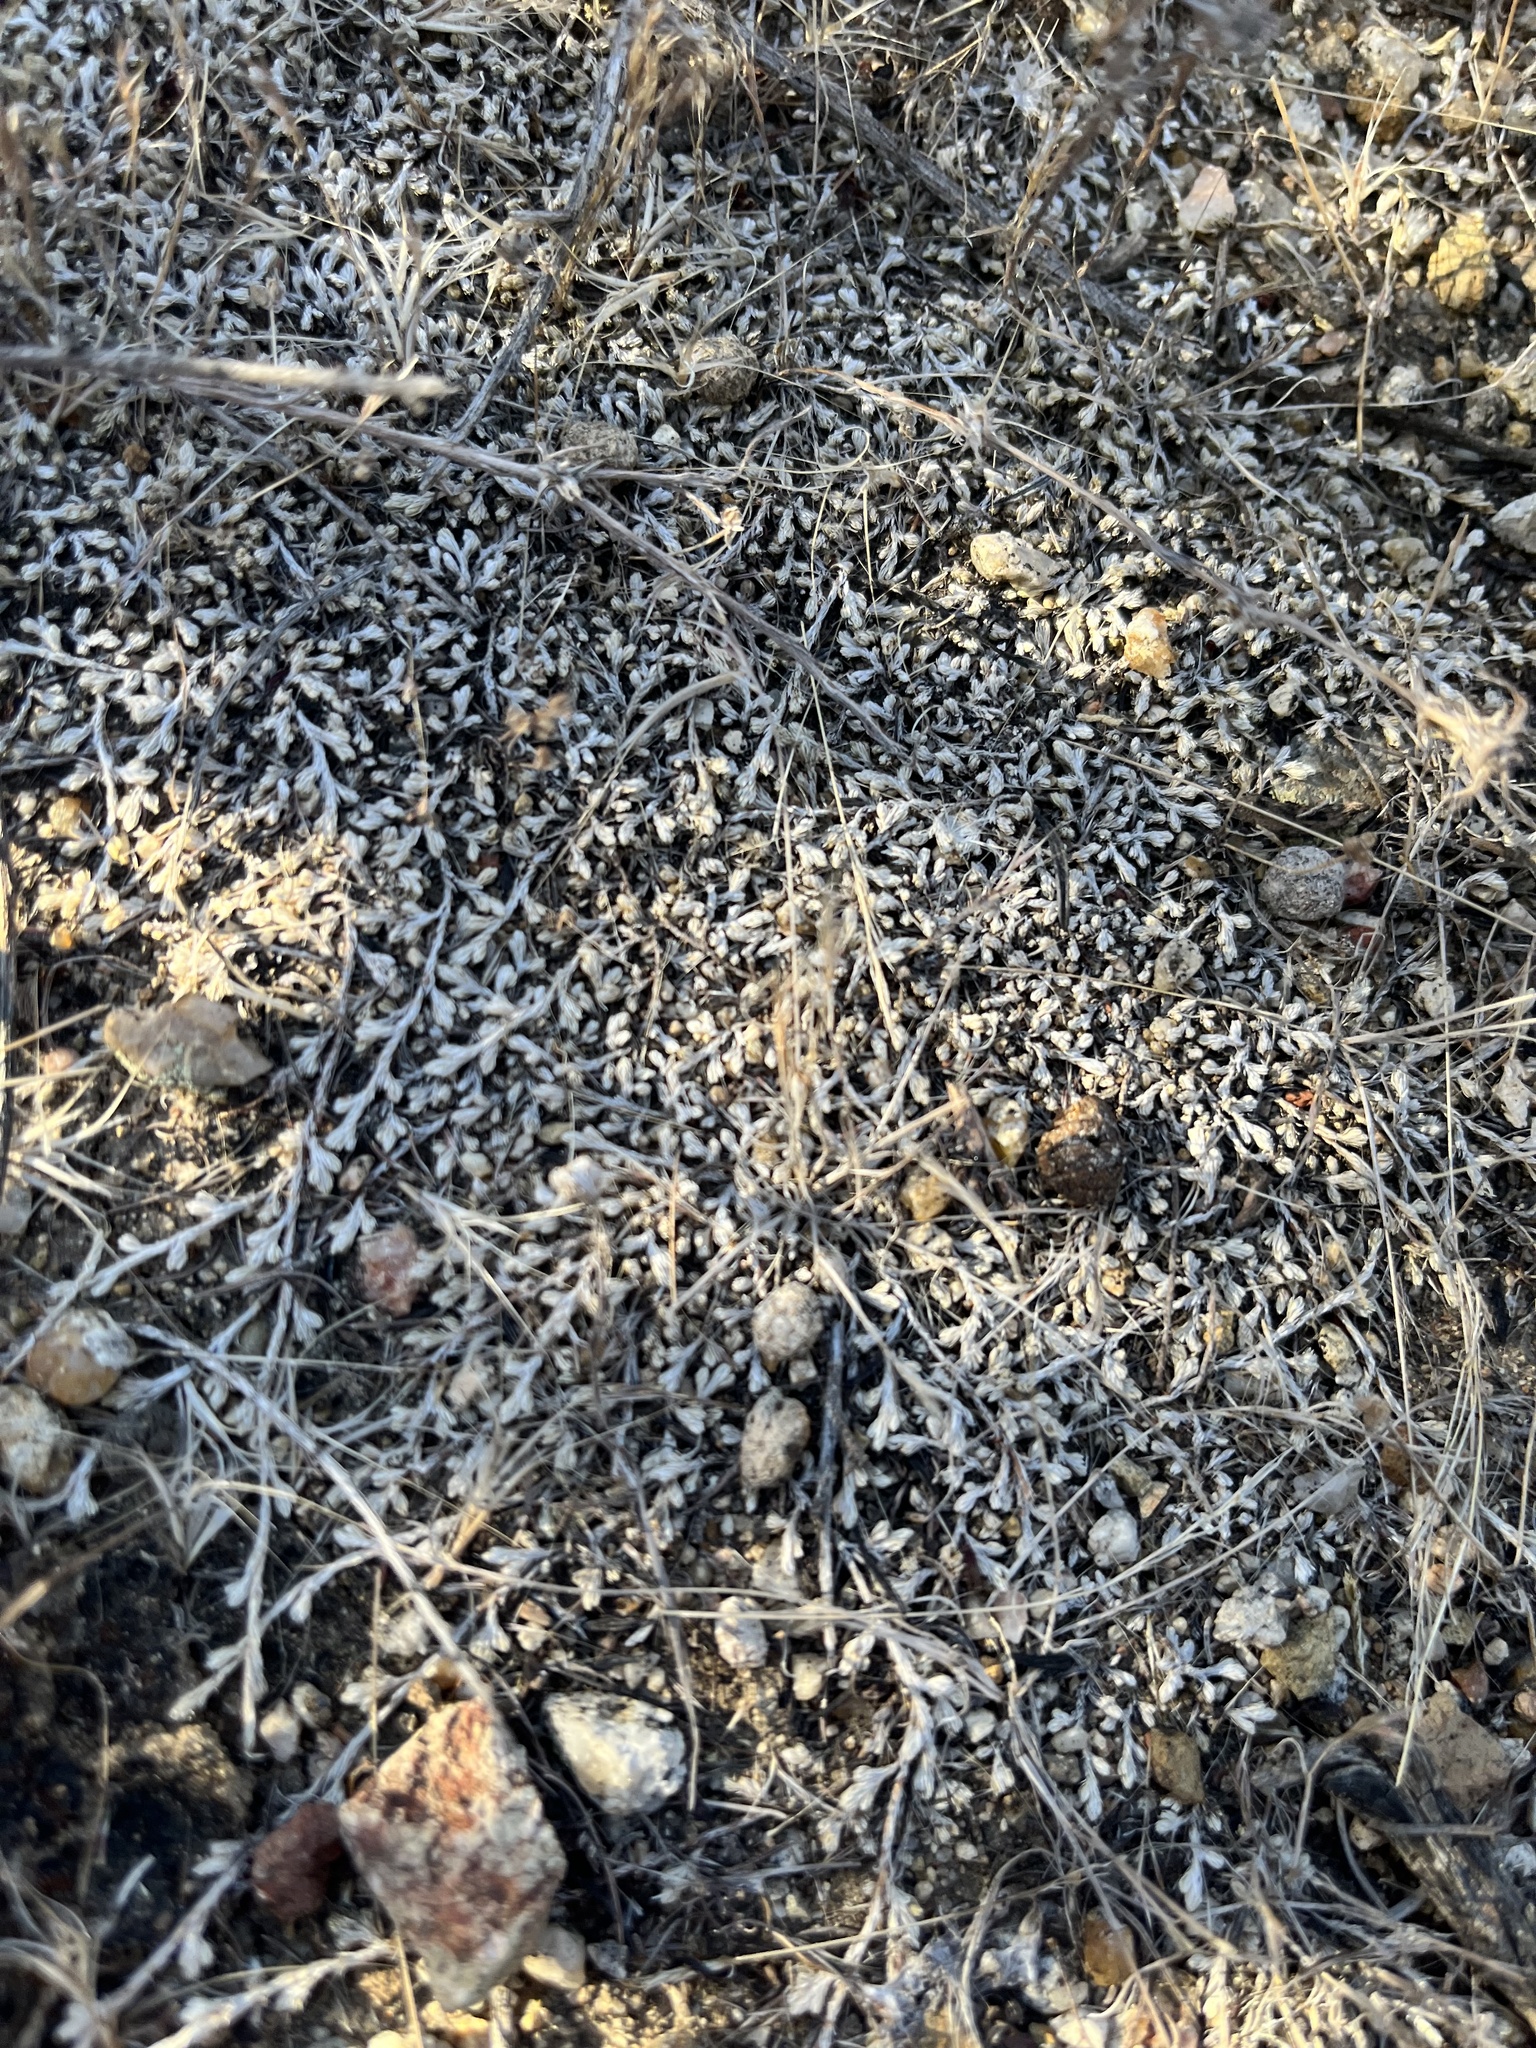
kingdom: Plantae
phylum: Tracheophyta
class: Lycopodiopsida
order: Selaginellales
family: Selaginellaceae
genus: Selaginella
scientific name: Selaginella cinerascens
